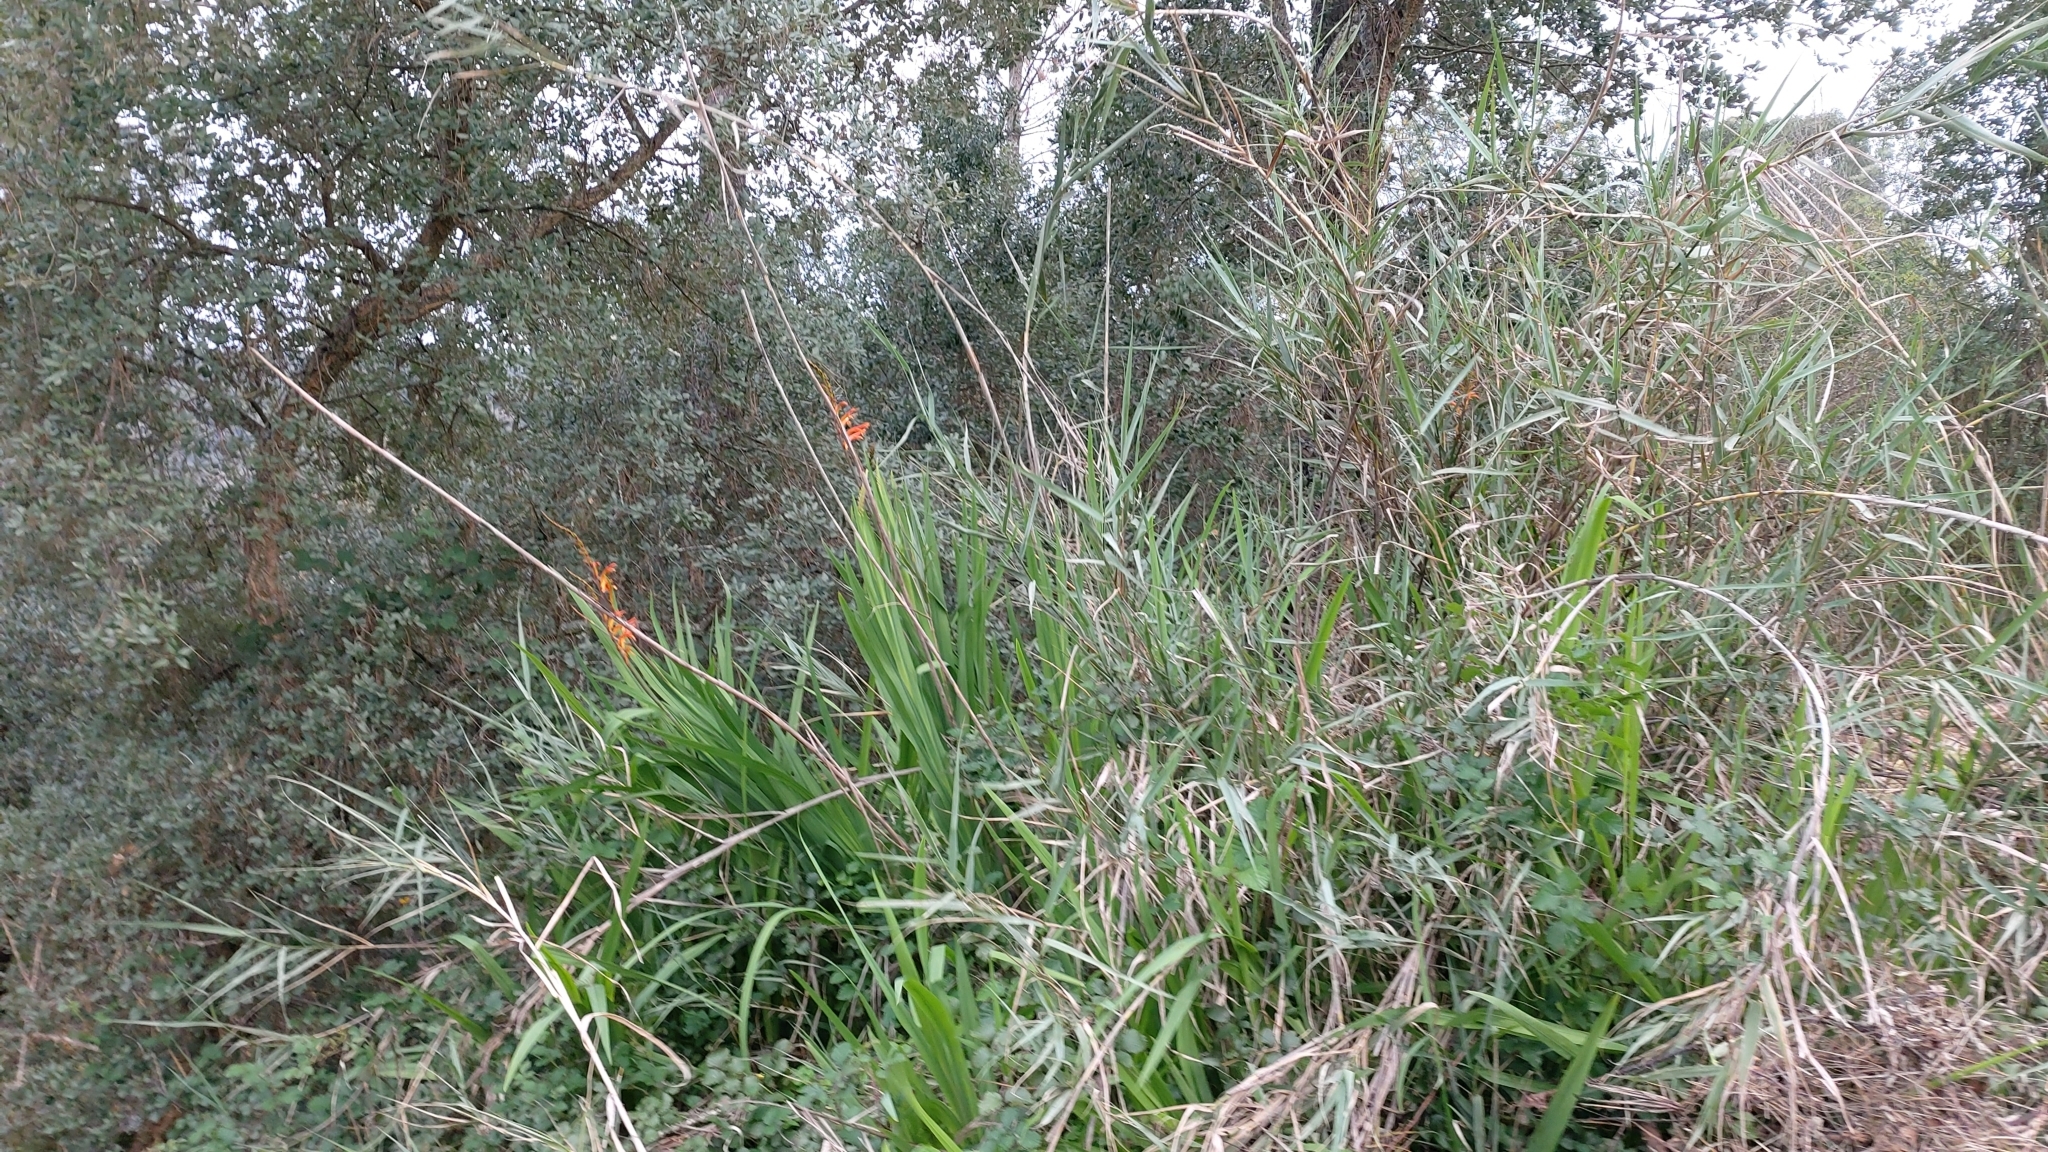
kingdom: Plantae
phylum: Tracheophyta
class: Liliopsida
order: Asparagales
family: Iridaceae
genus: Chasmanthe
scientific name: Chasmanthe floribunda
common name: African cornflag
